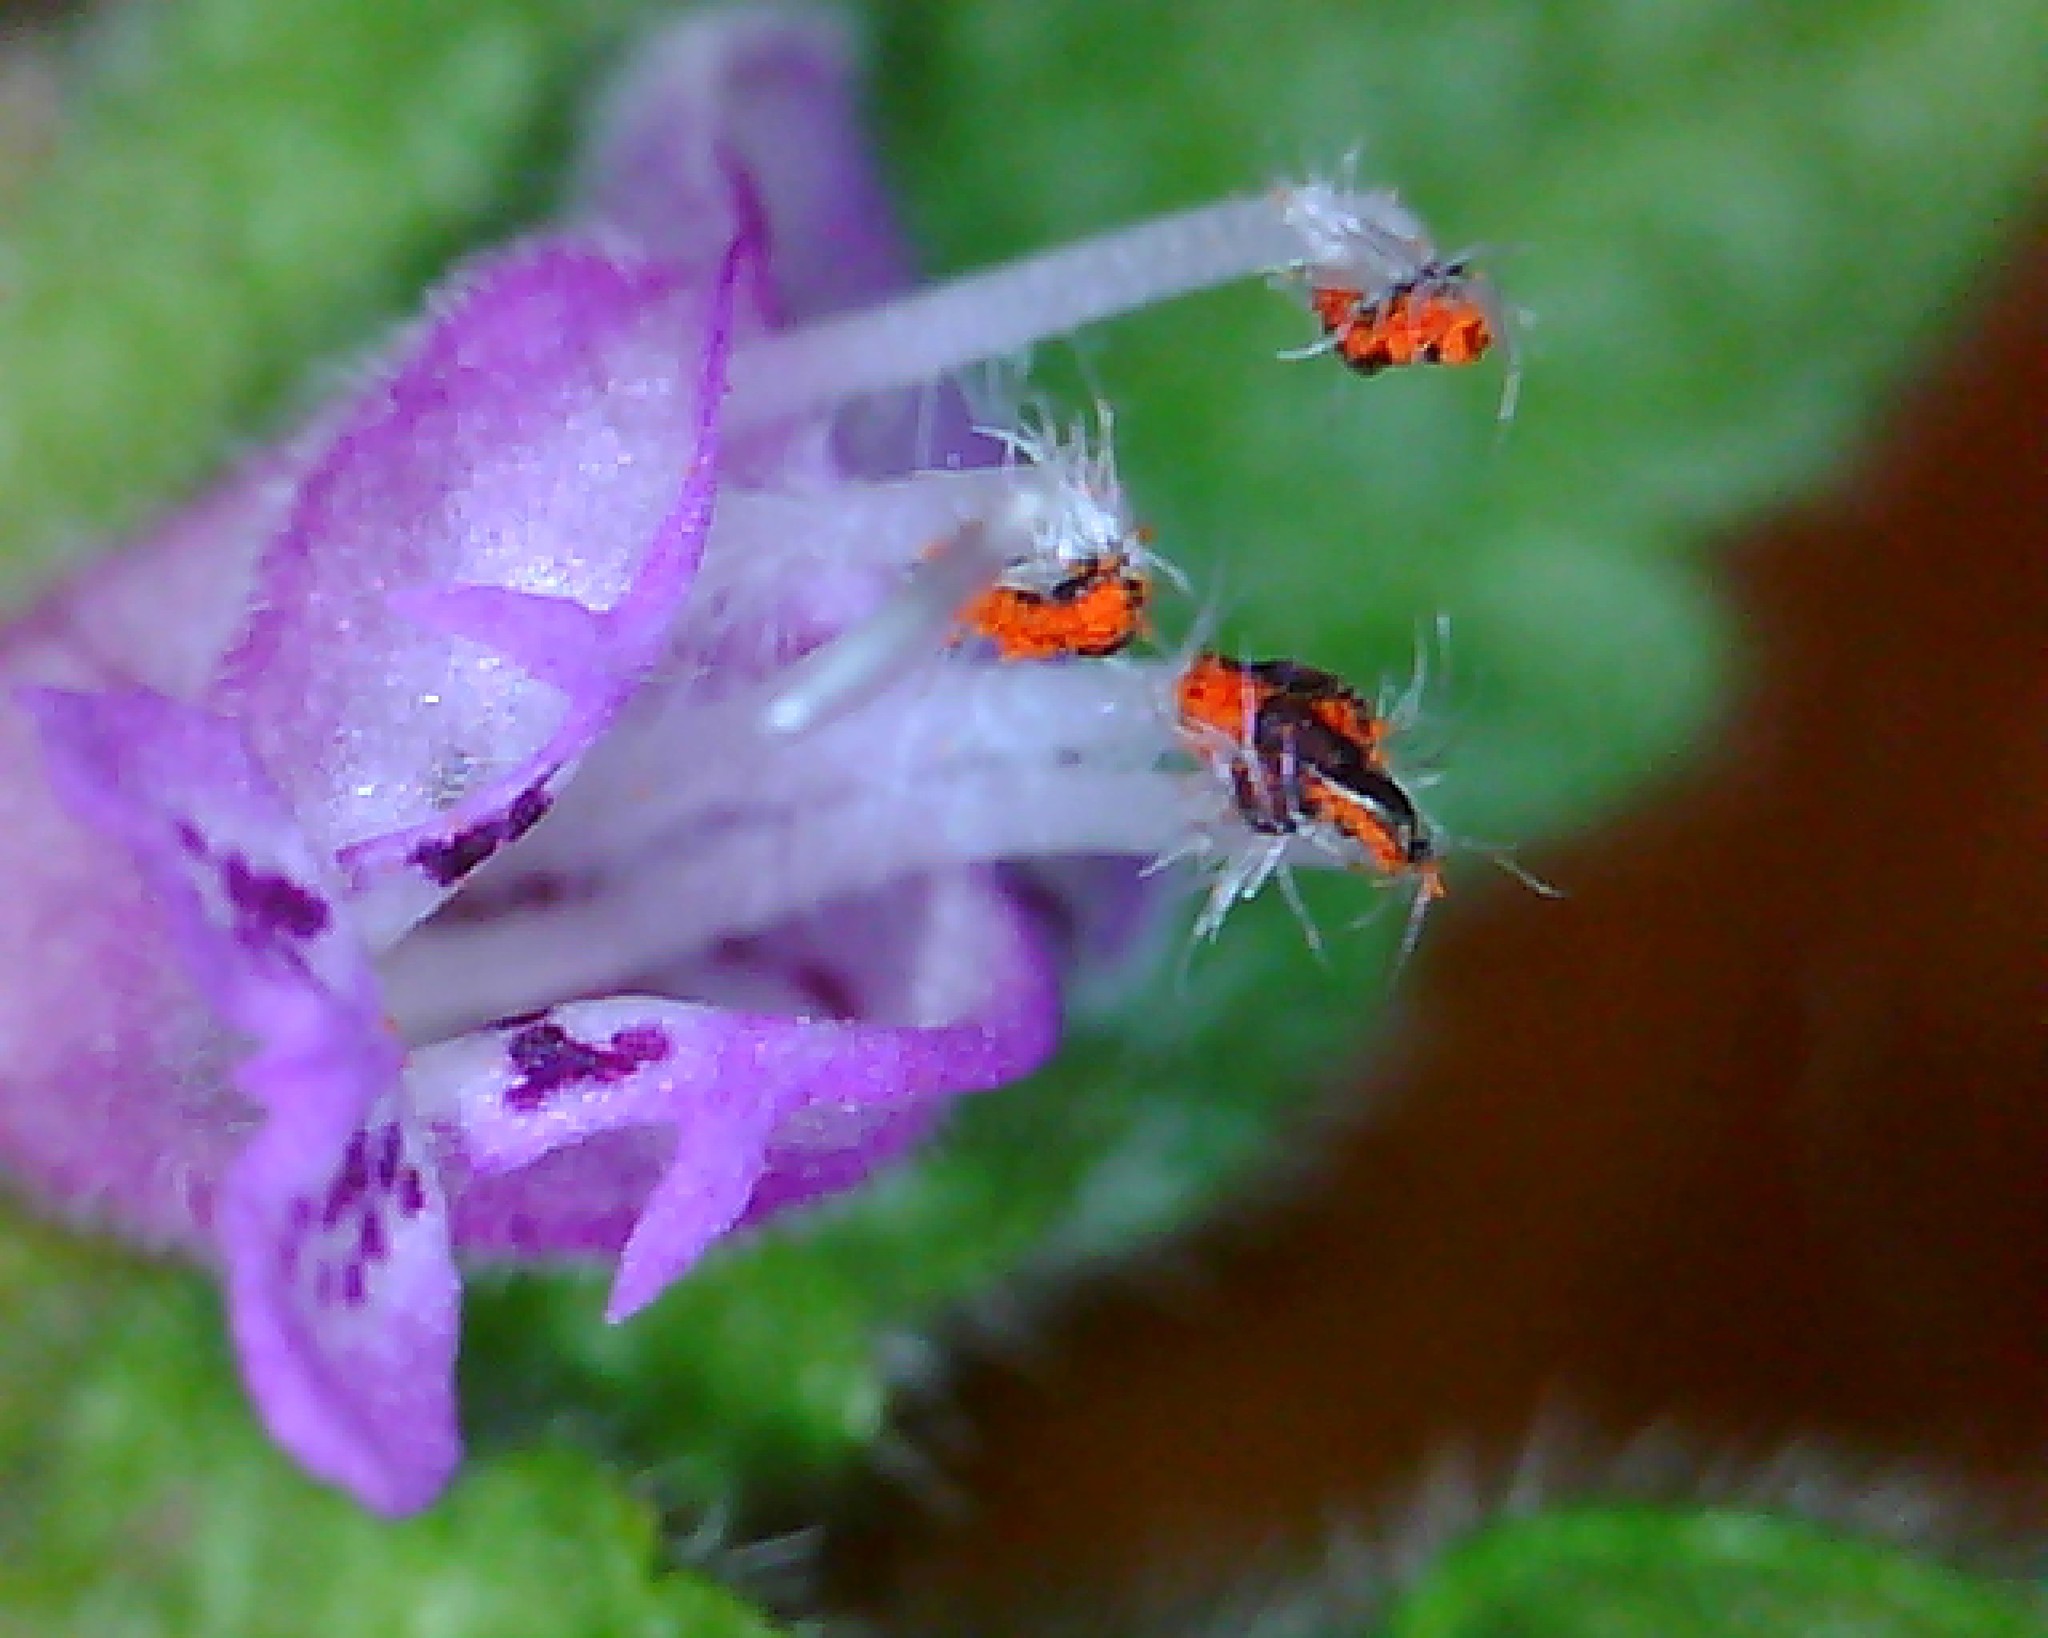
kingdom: Plantae
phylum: Tracheophyta
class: Magnoliopsida
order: Lamiales
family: Lamiaceae
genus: Lamium
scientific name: Lamium purpureum
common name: Red dead-nettle
